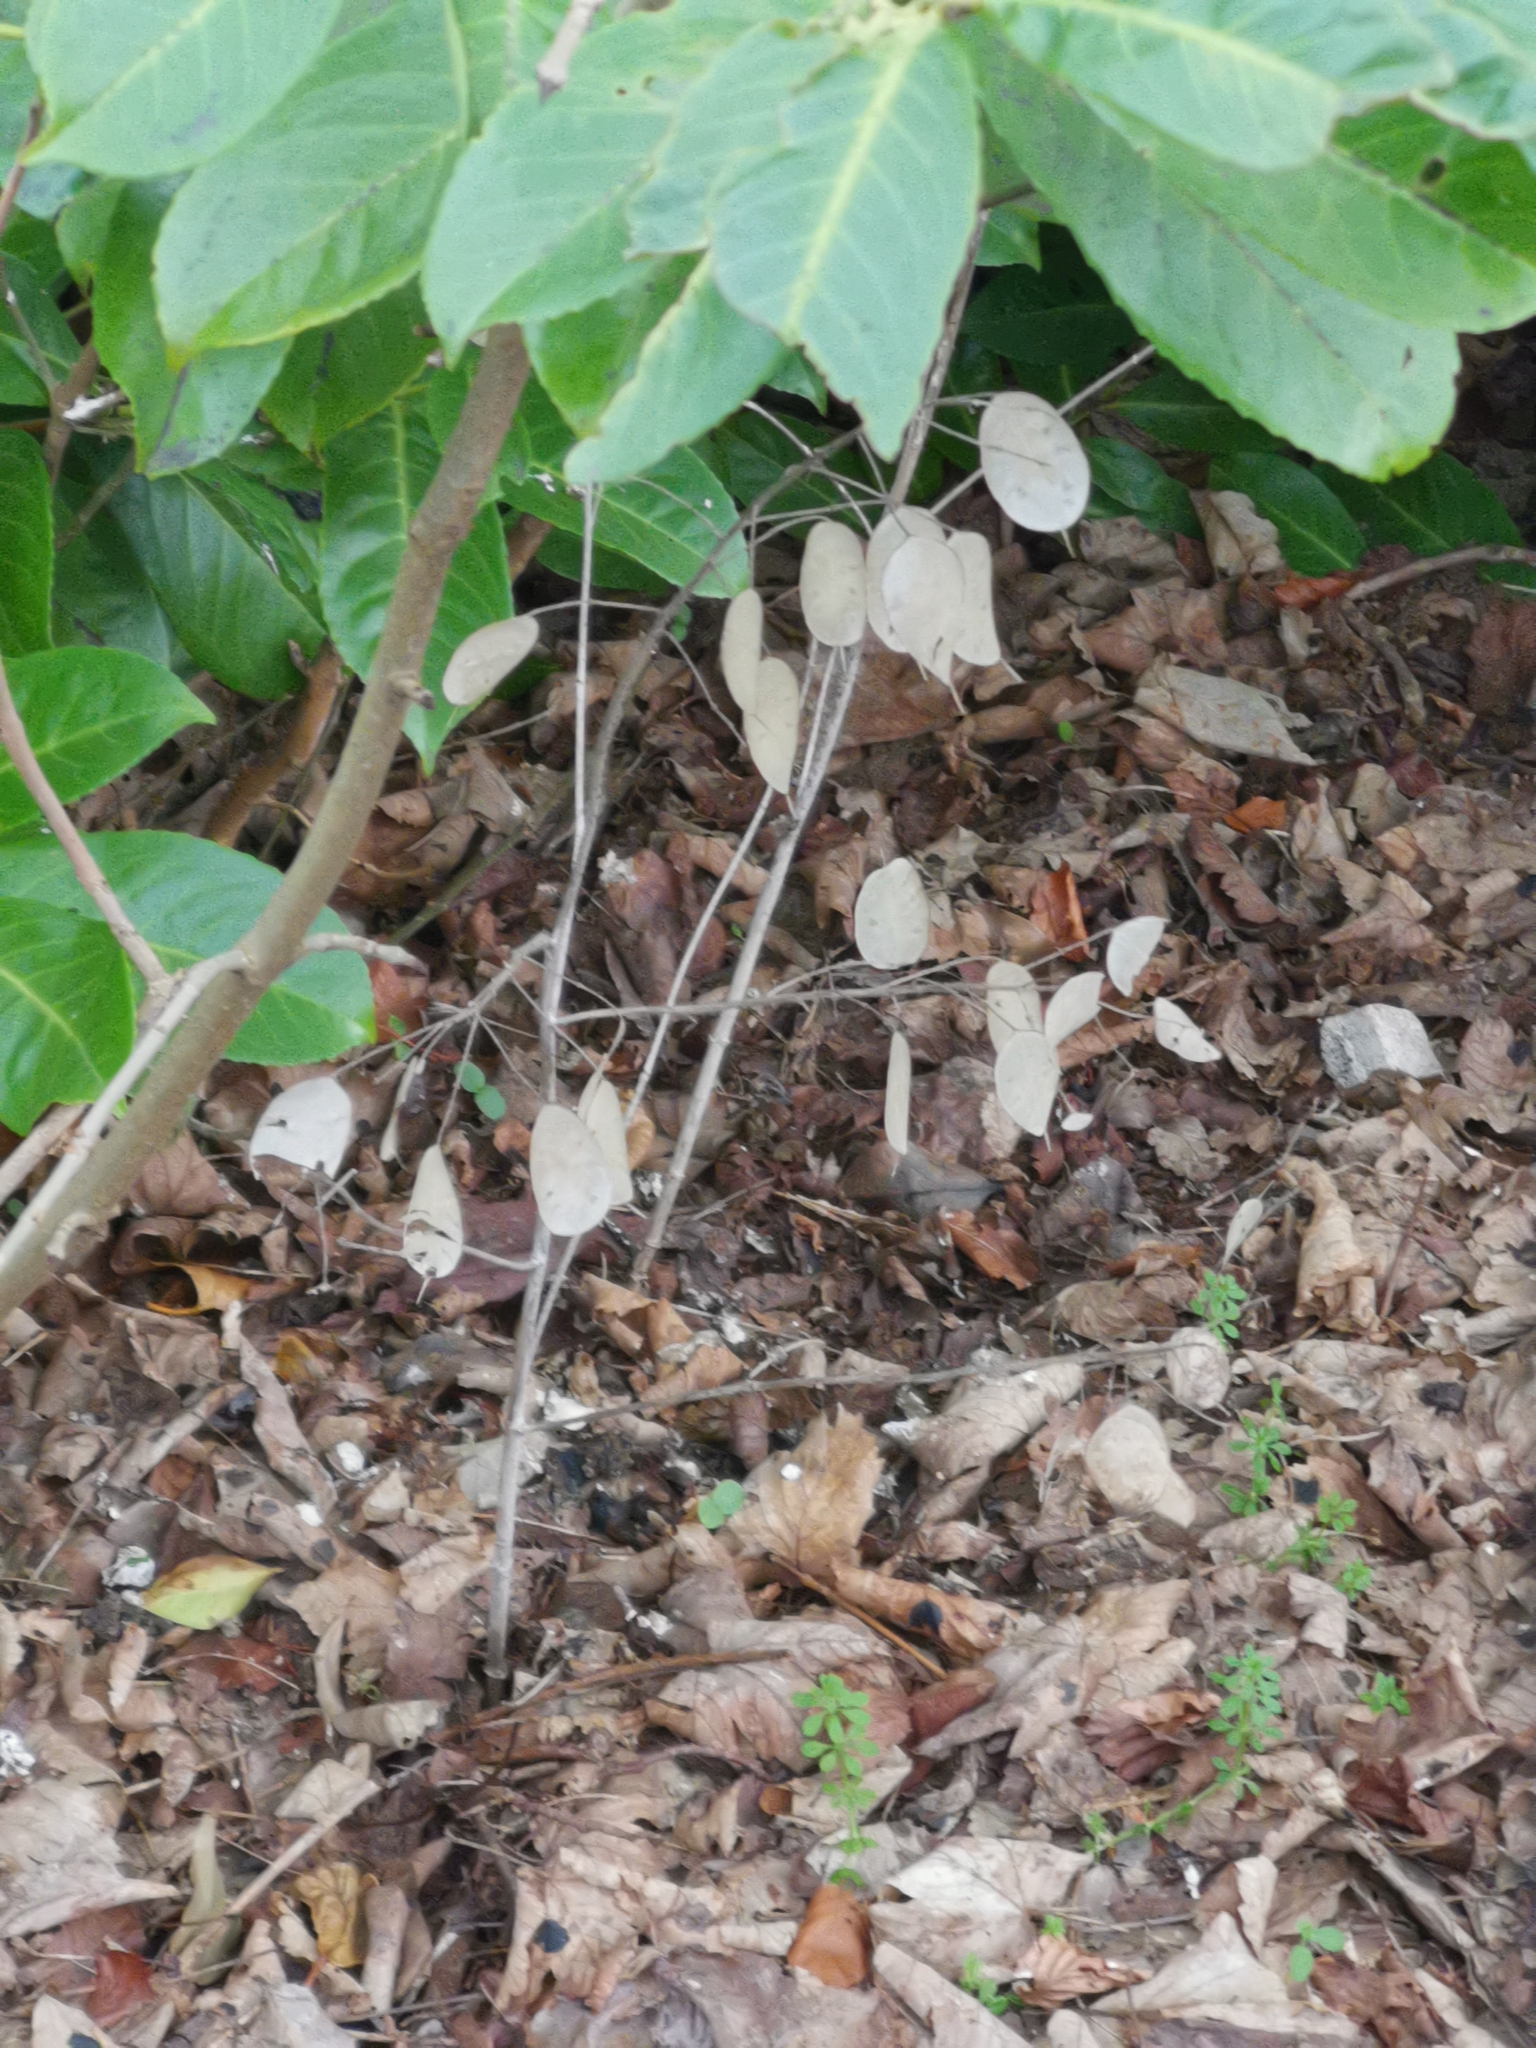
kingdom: Plantae
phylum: Tracheophyta
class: Magnoliopsida
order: Brassicales
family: Brassicaceae
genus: Lunaria
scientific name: Lunaria annua
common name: Honesty
